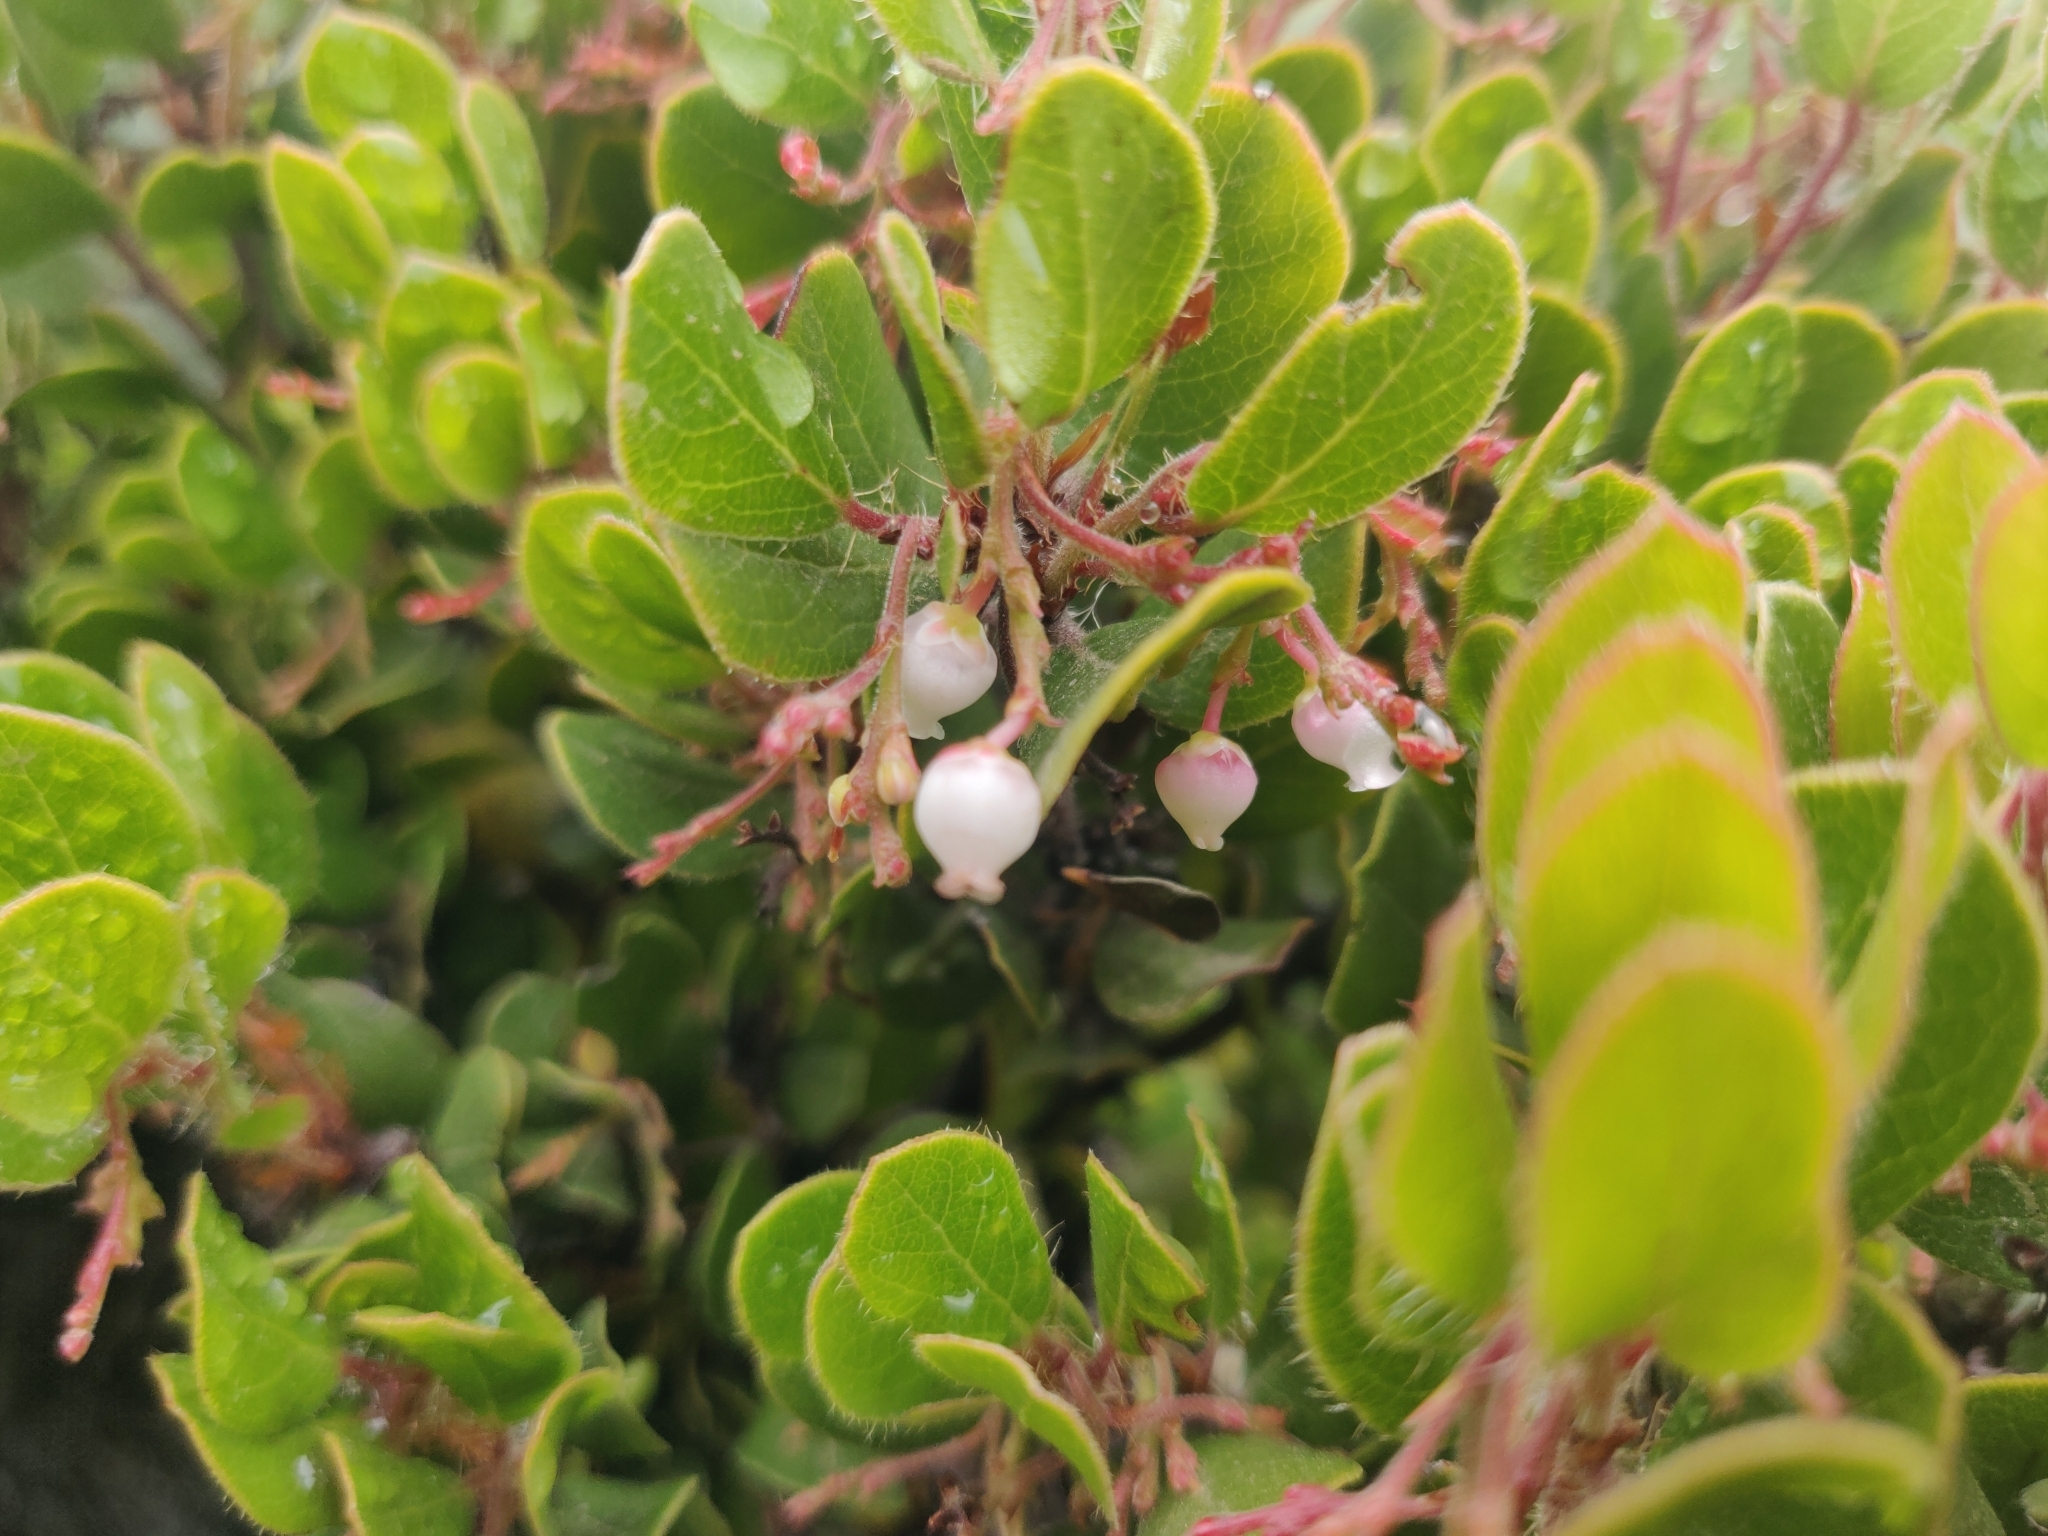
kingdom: Plantae
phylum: Tracheophyta
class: Magnoliopsida
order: Ericales
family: Ericaceae
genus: Arctostaphylos
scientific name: Arctostaphylos nummularia
